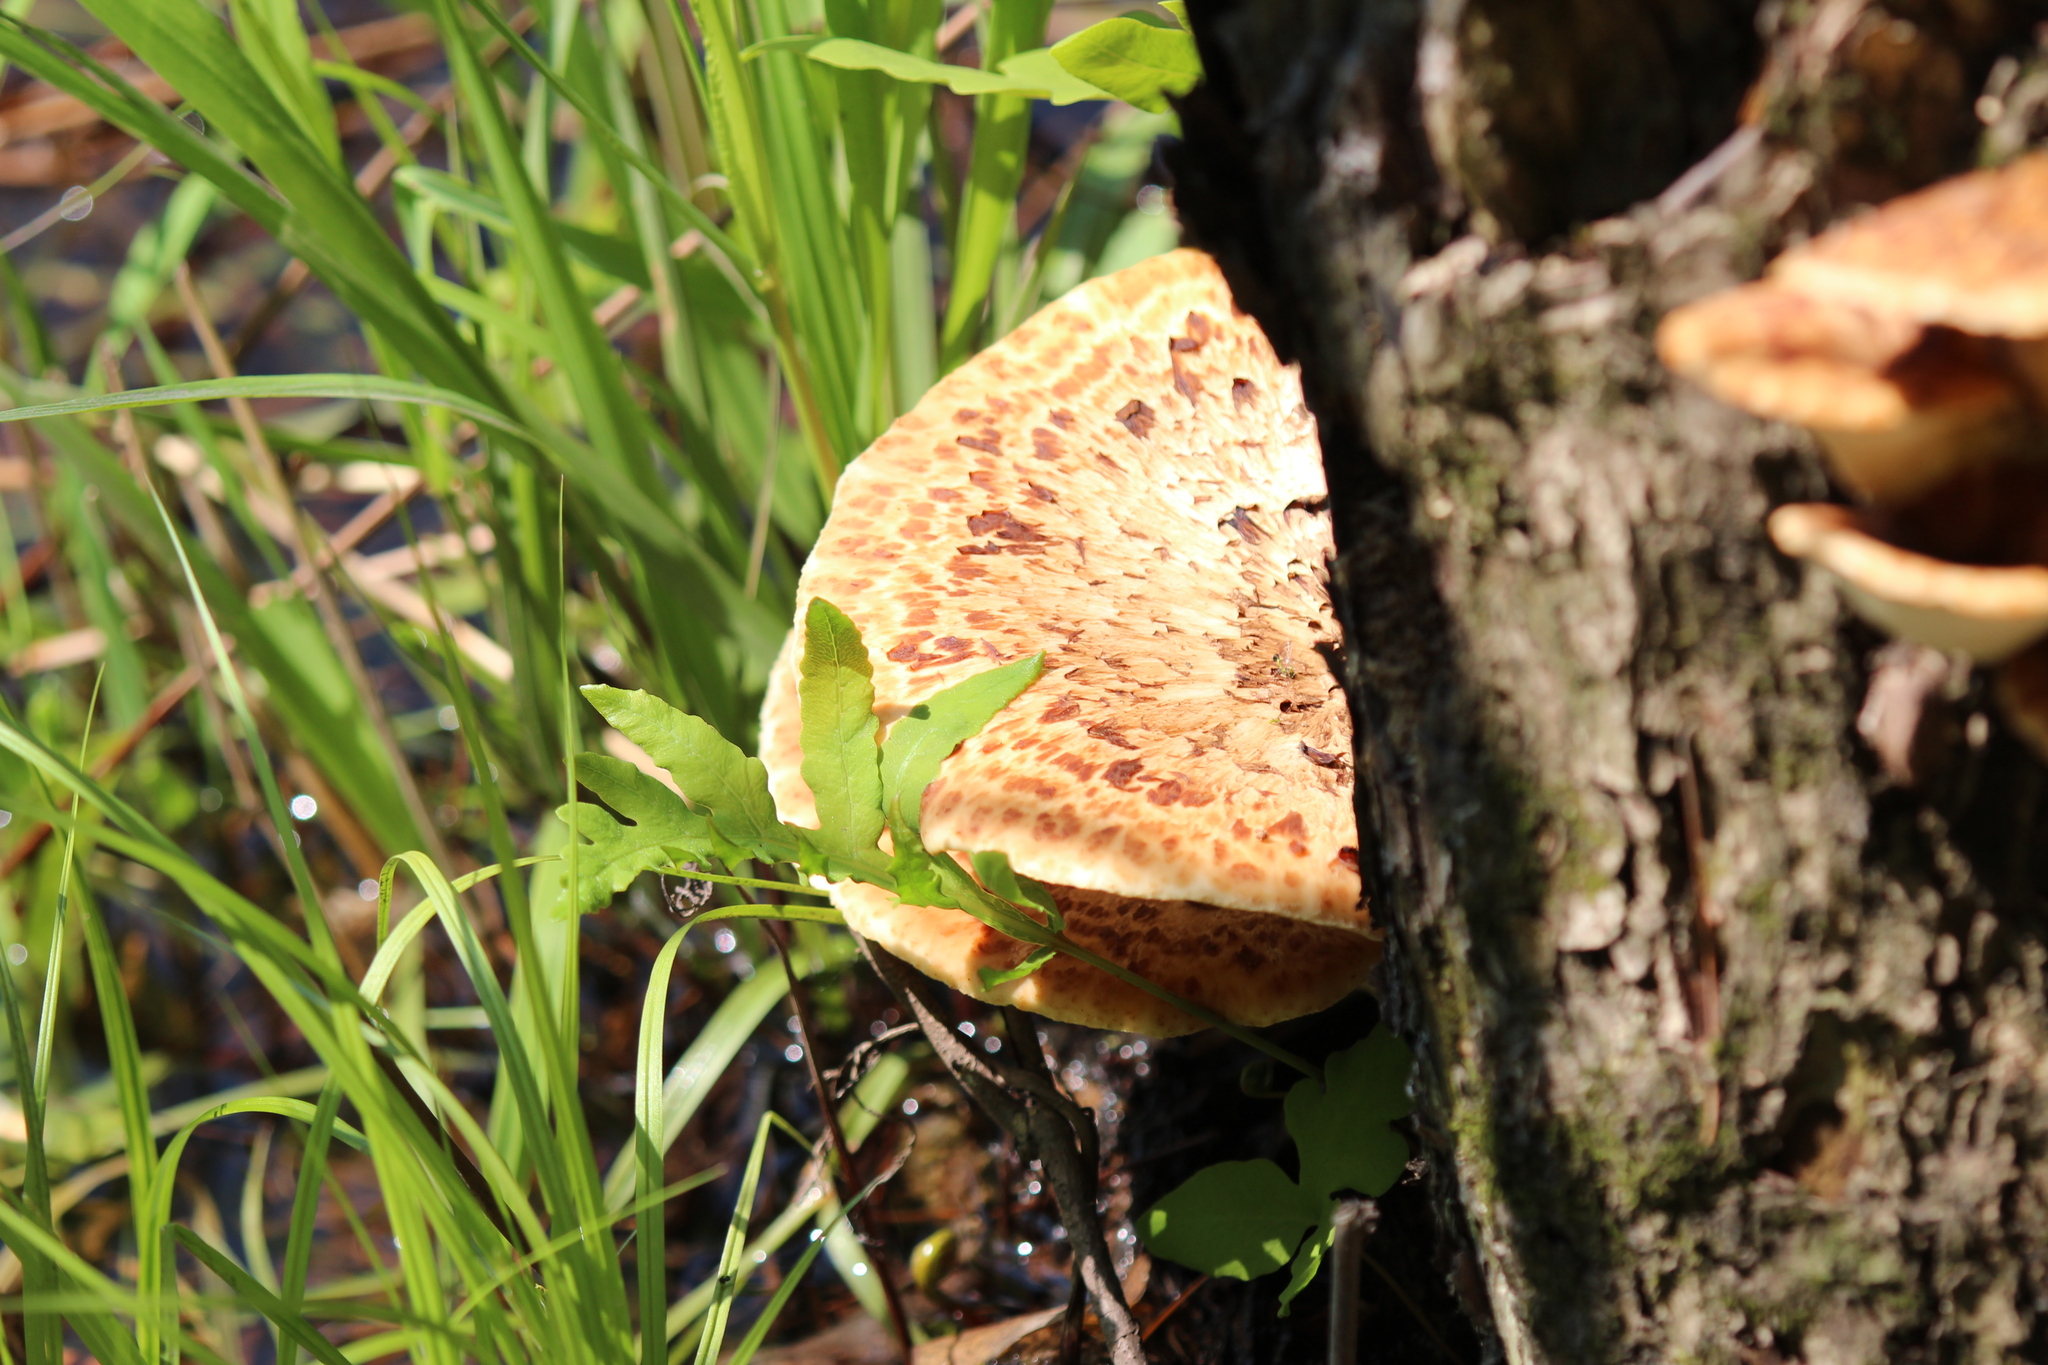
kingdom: Fungi
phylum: Basidiomycota
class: Agaricomycetes
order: Polyporales
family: Polyporaceae
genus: Cerioporus
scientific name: Cerioporus squamosus
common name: Dryad's saddle
